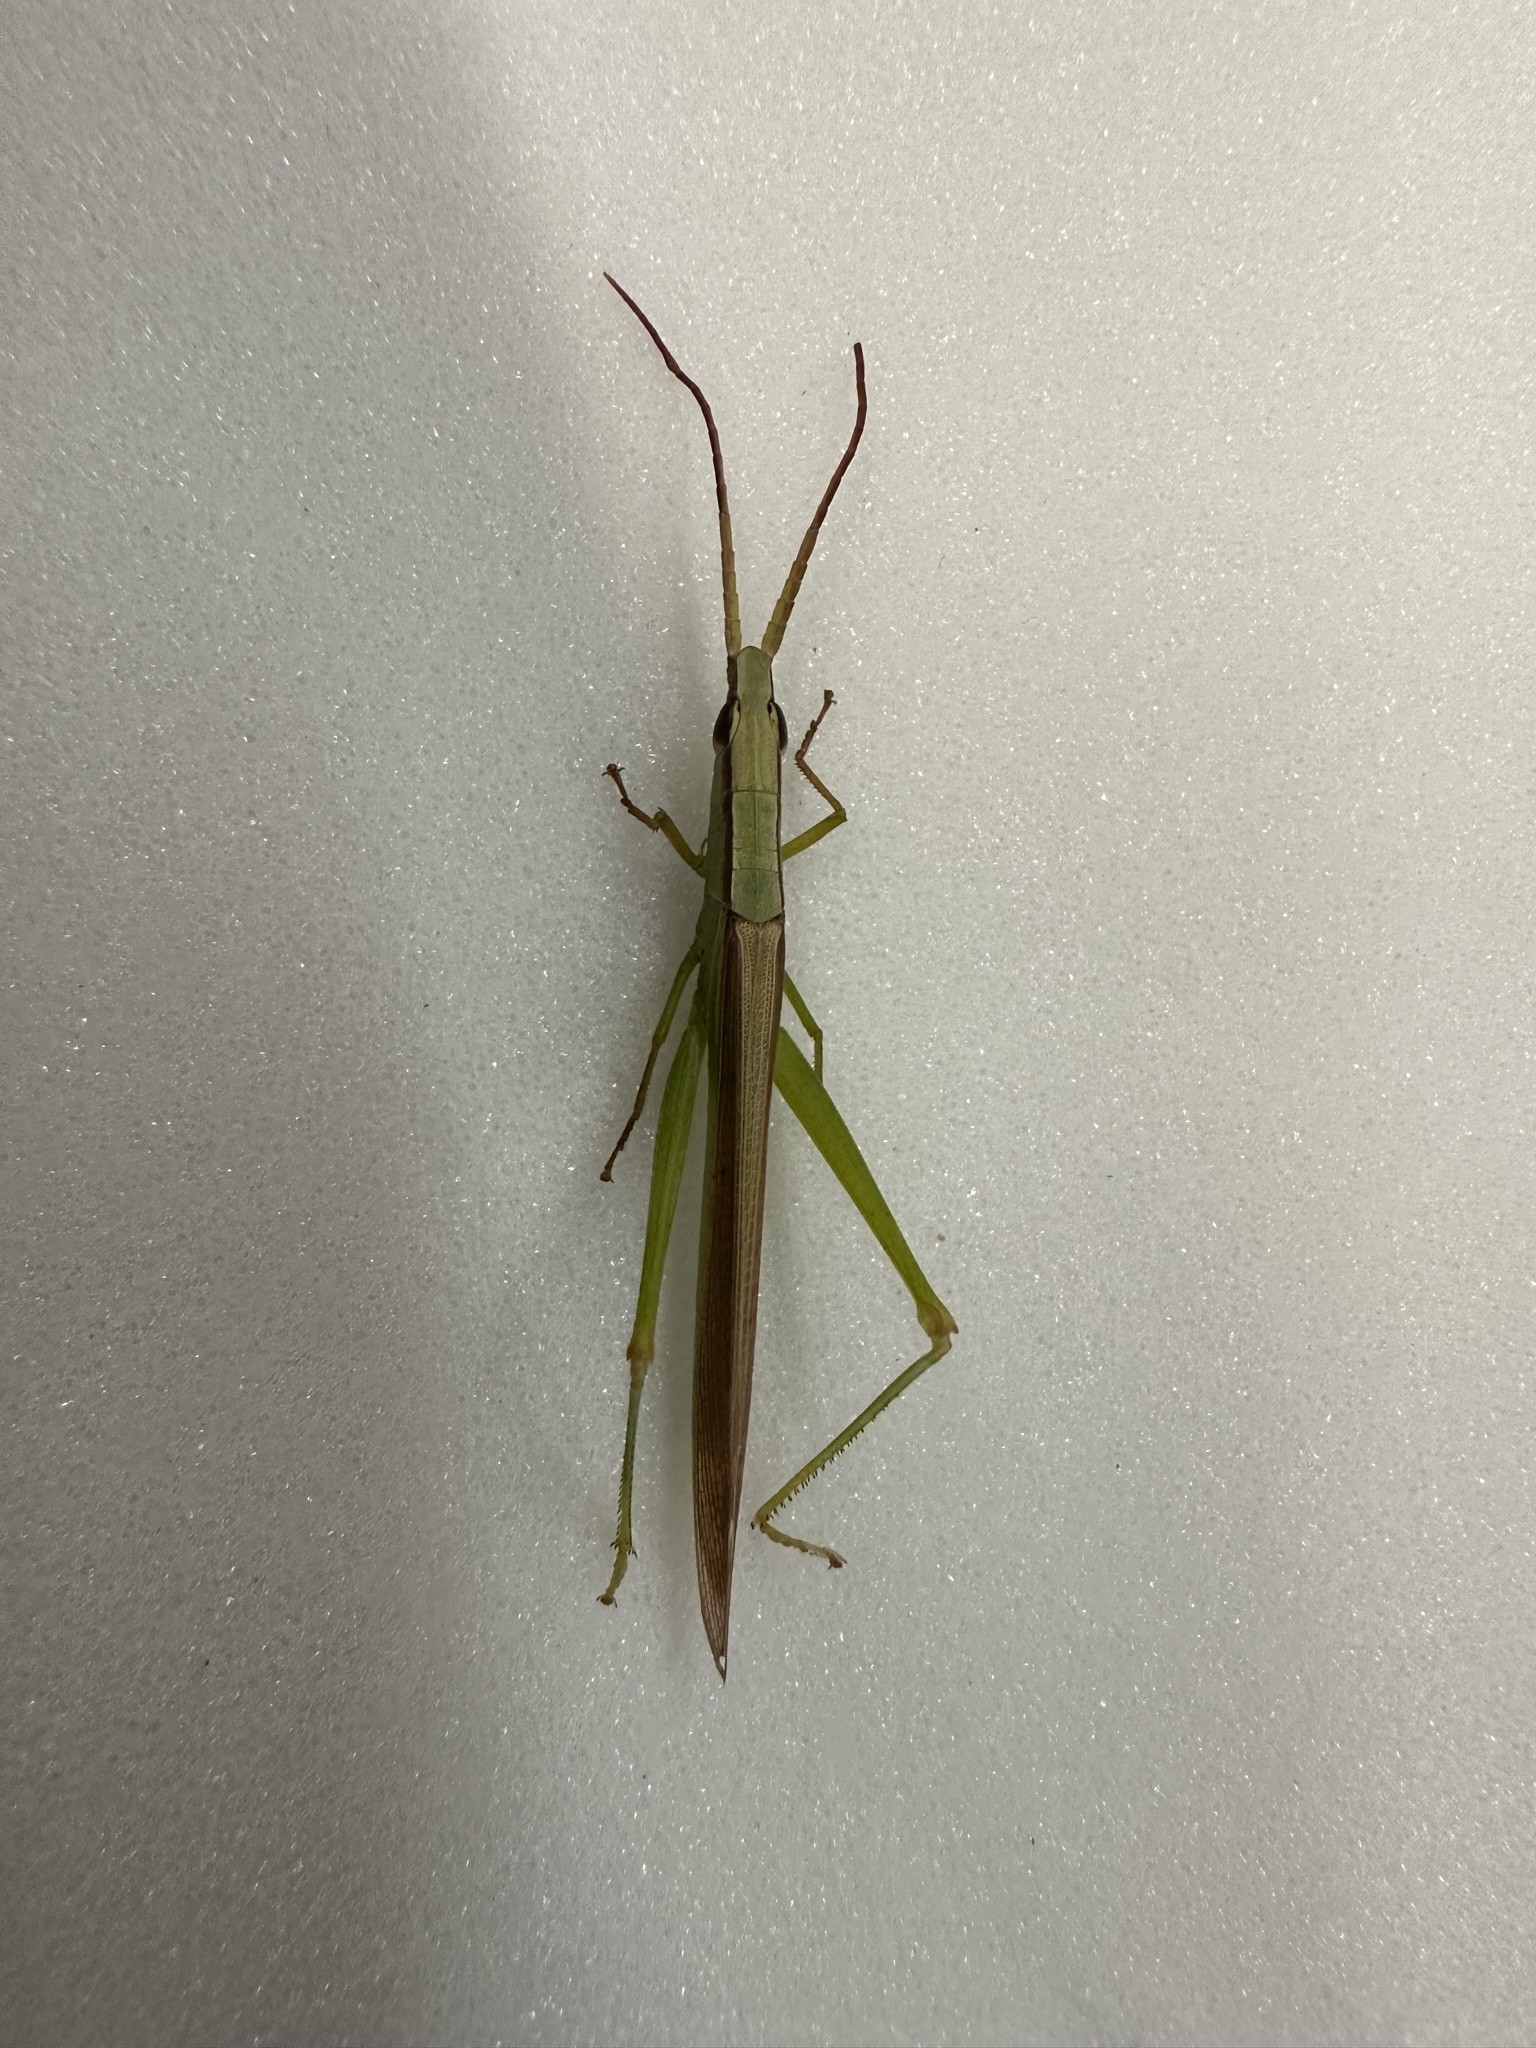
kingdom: Animalia
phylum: Arthropoda
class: Insecta
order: Orthoptera
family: Acrididae
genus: Gonista
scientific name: Gonista bicolor
